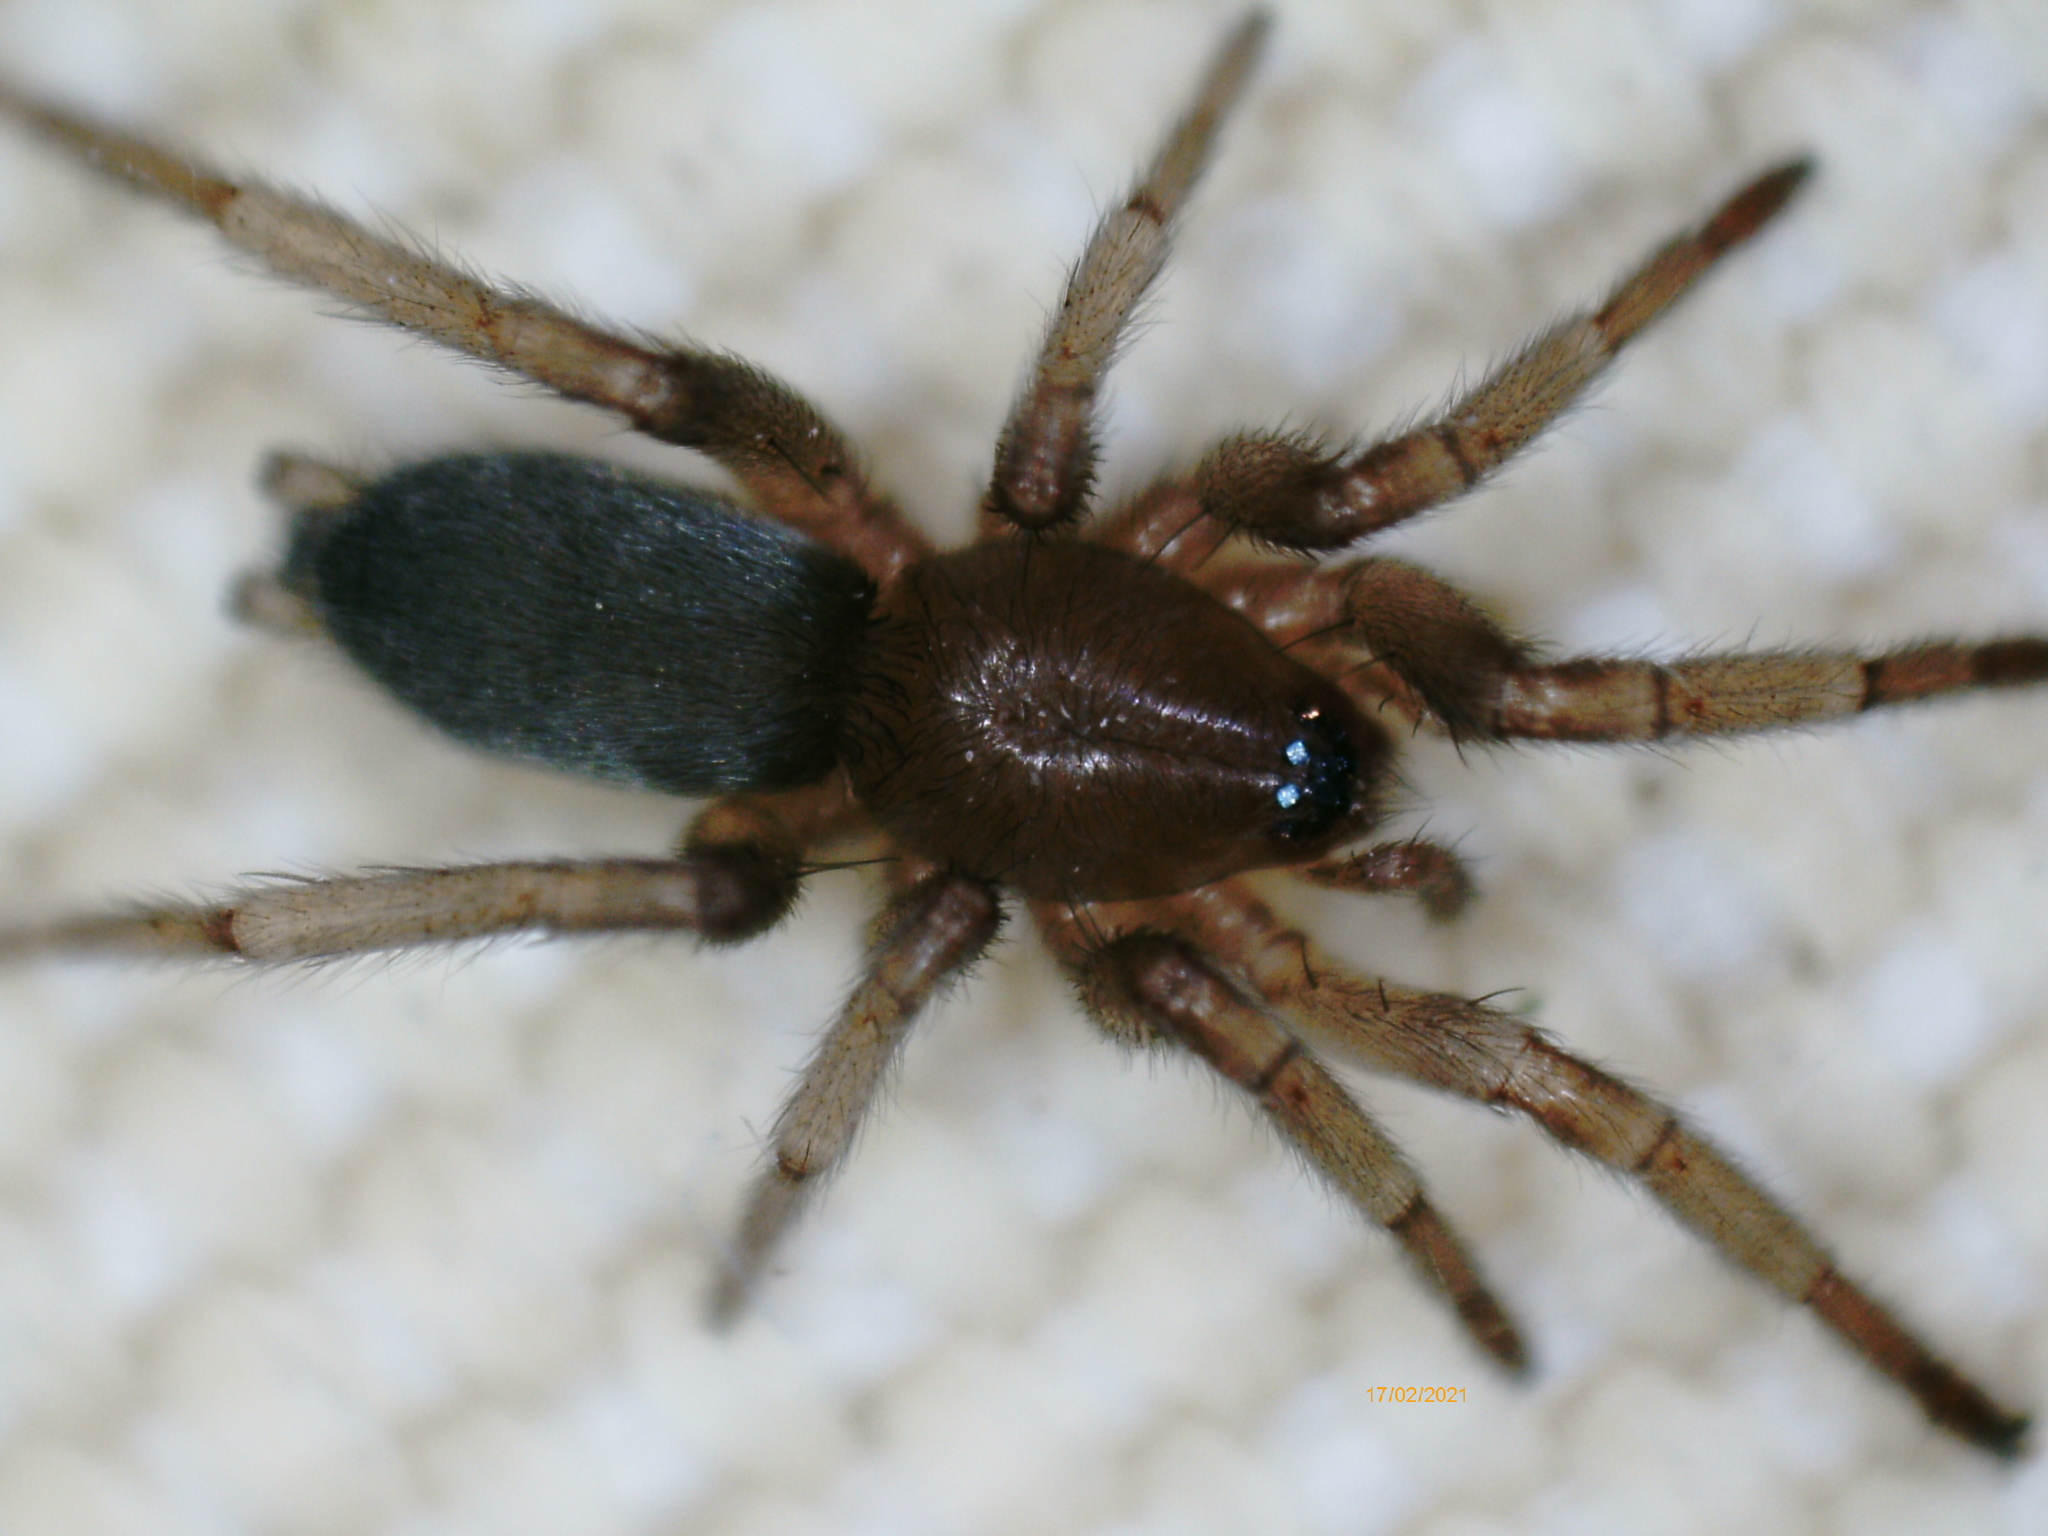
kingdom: Animalia
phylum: Arthropoda
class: Arachnida
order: Araneae
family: Gnaphosidae
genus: Scotophaeus
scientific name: Scotophaeus blackwalli
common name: Mouse spider
